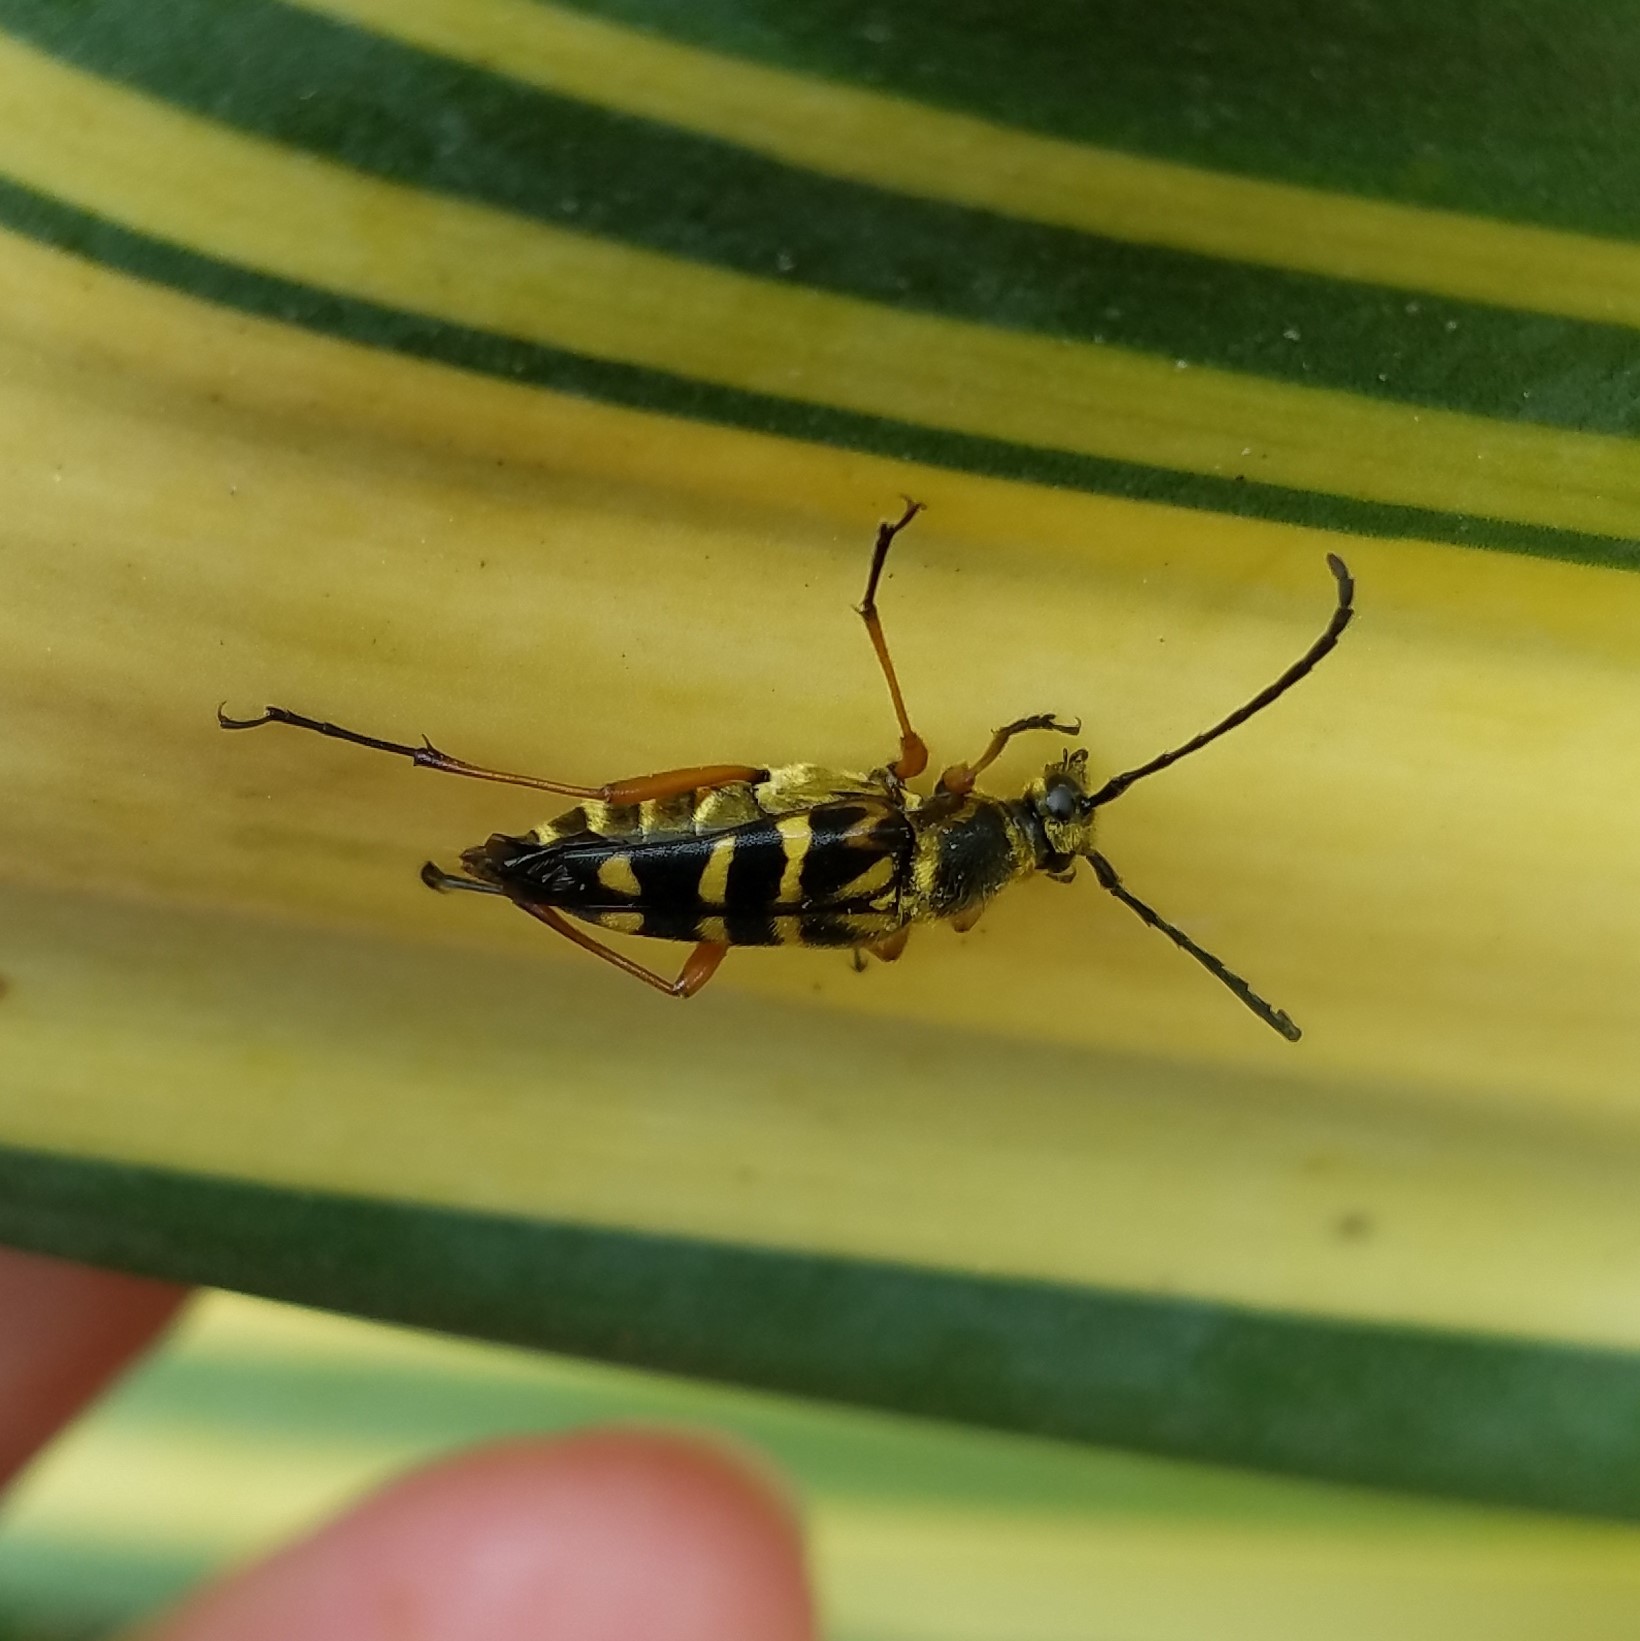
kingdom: Animalia
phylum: Arthropoda
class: Insecta
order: Coleoptera
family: Cerambycidae
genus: Typocerus
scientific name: Typocerus zebra
